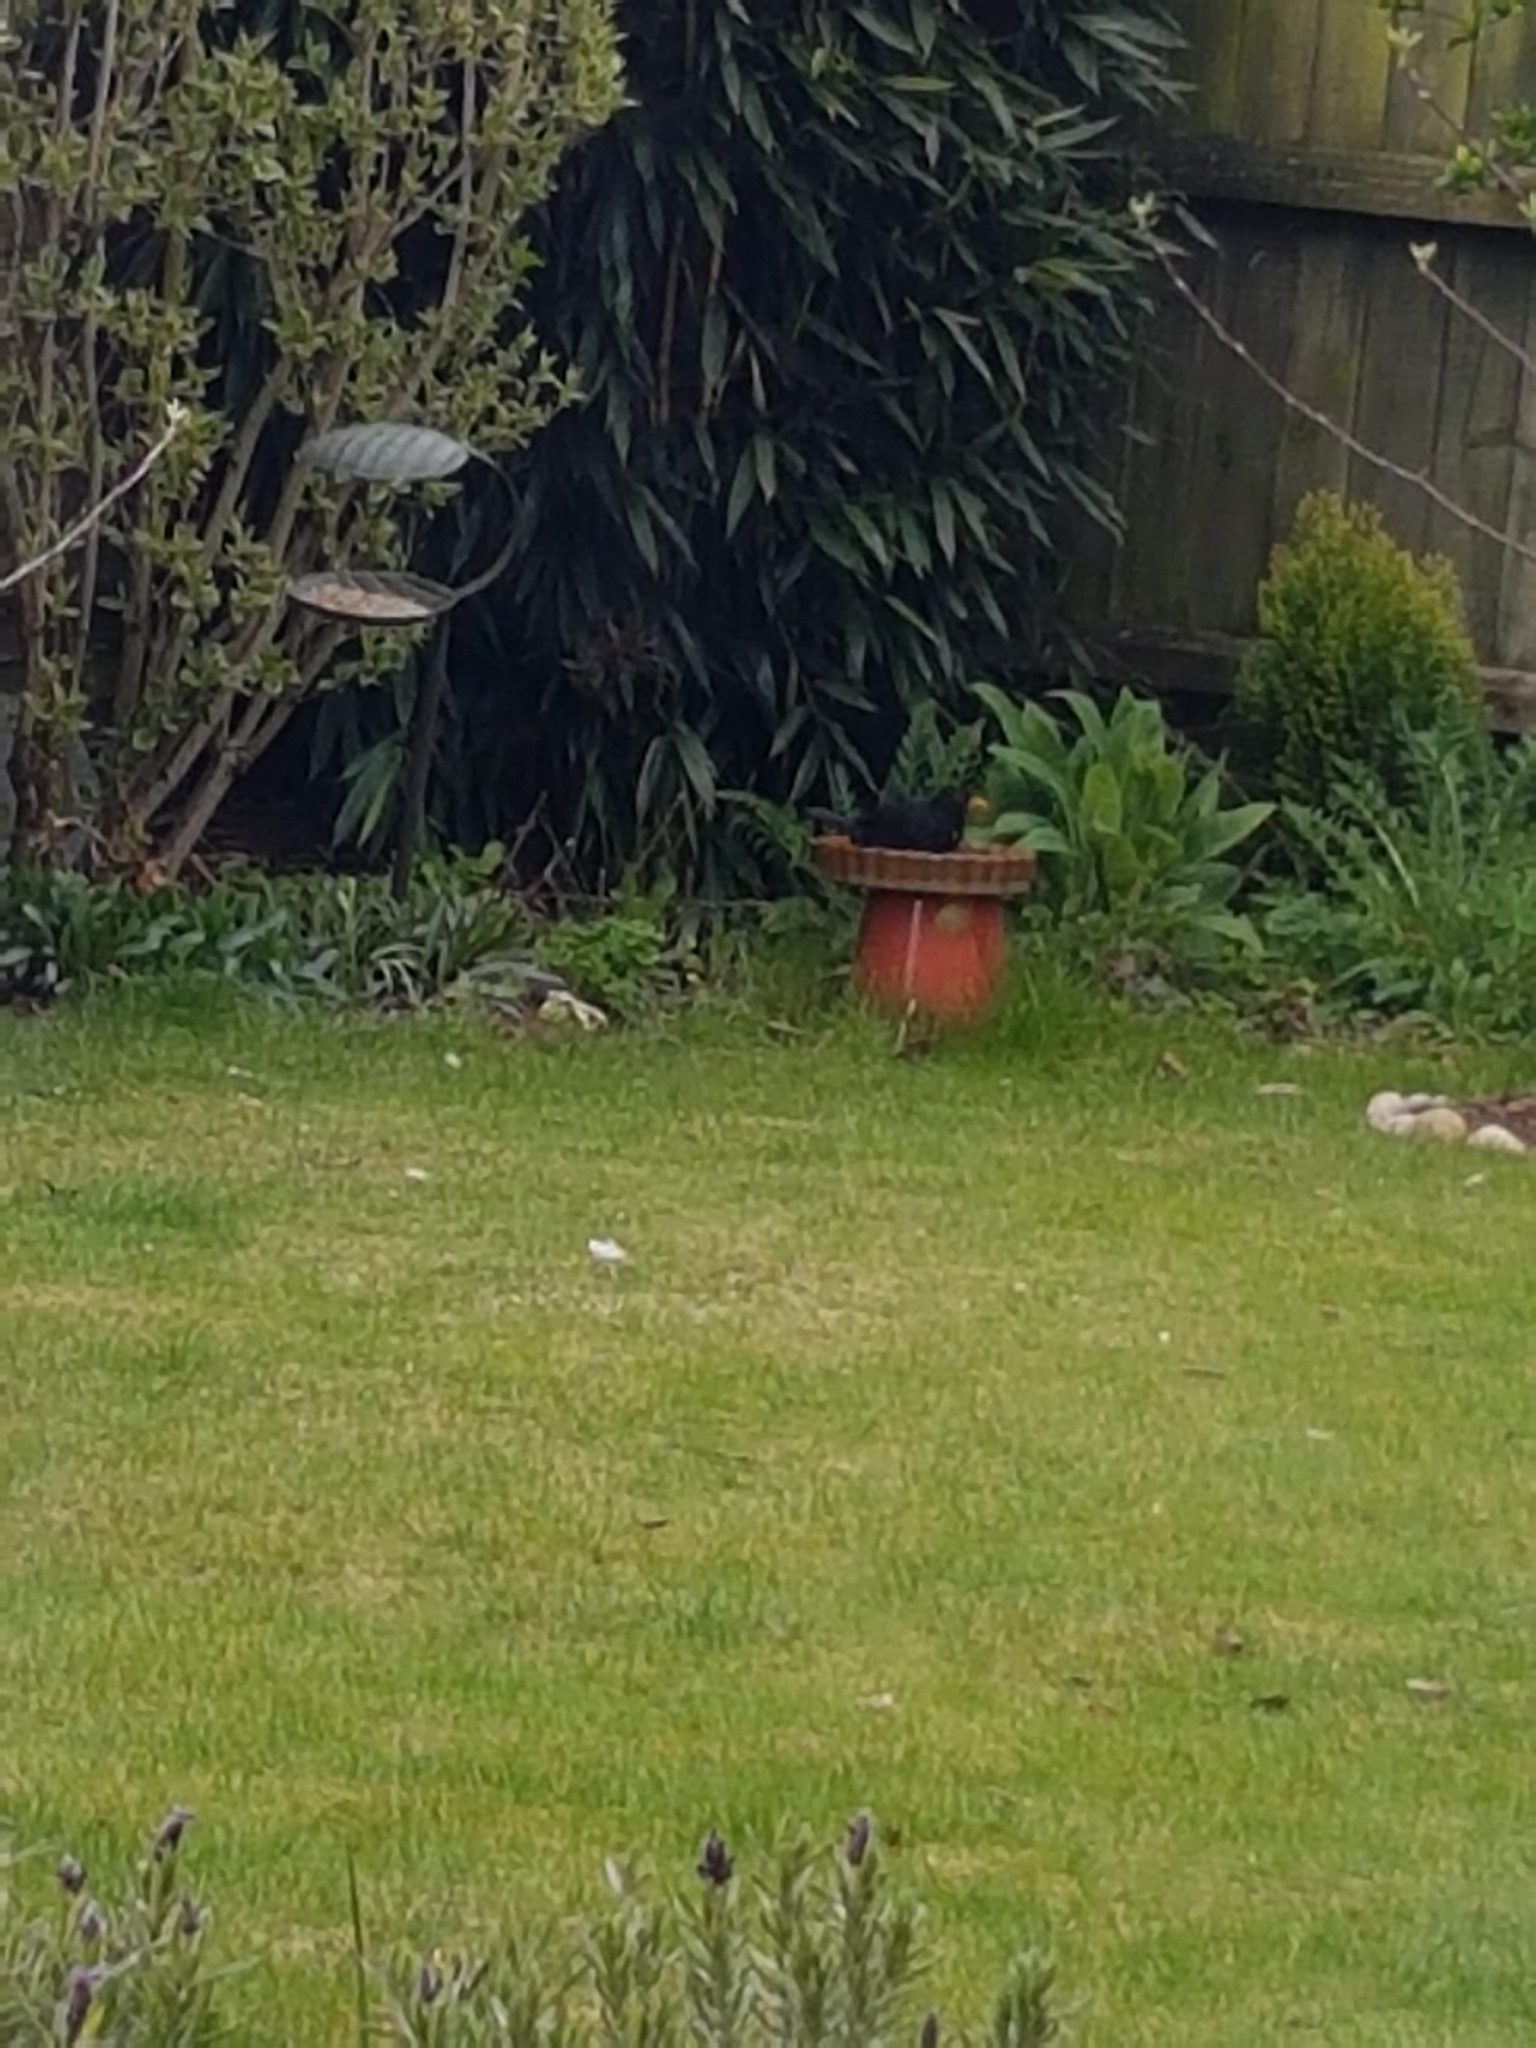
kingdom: Animalia
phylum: Chordata
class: Aves
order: Passeriformes
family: Turdidae
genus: Turdus
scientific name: Turdus merula
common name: Common blackbird
